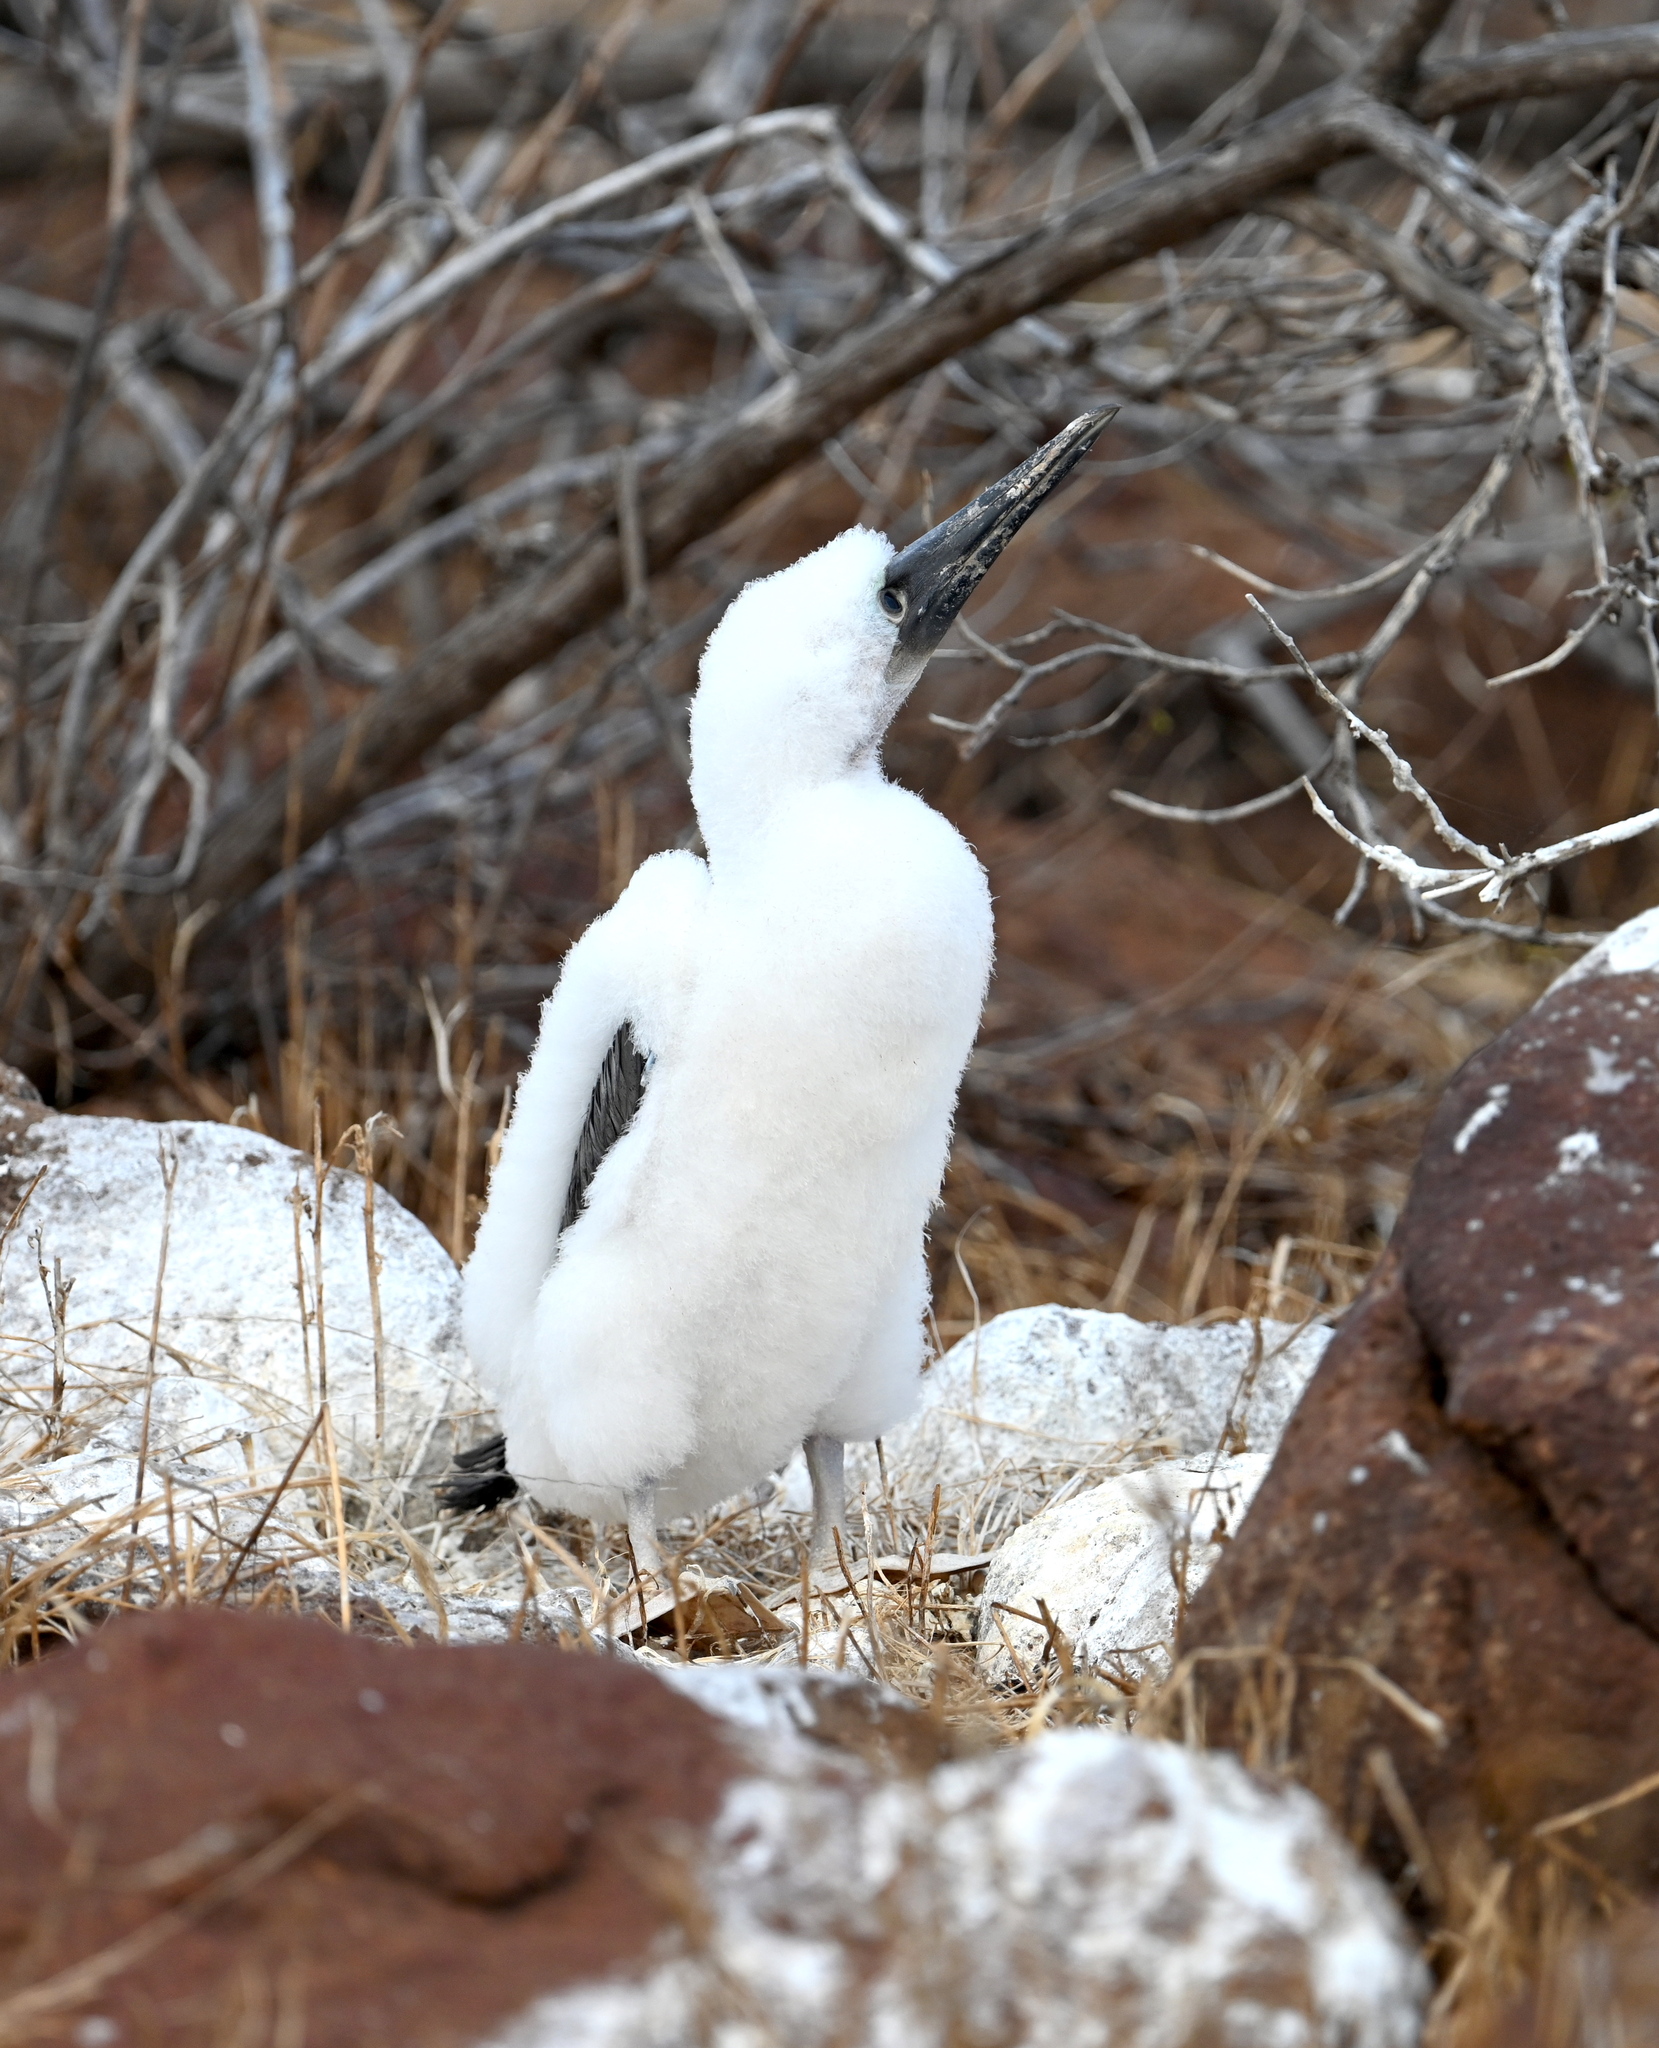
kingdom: Animalia
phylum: Chordata
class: Aves
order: Suliformes
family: Sulidae
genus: Sula
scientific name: Sula nebouxii
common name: Blue-footed booby
